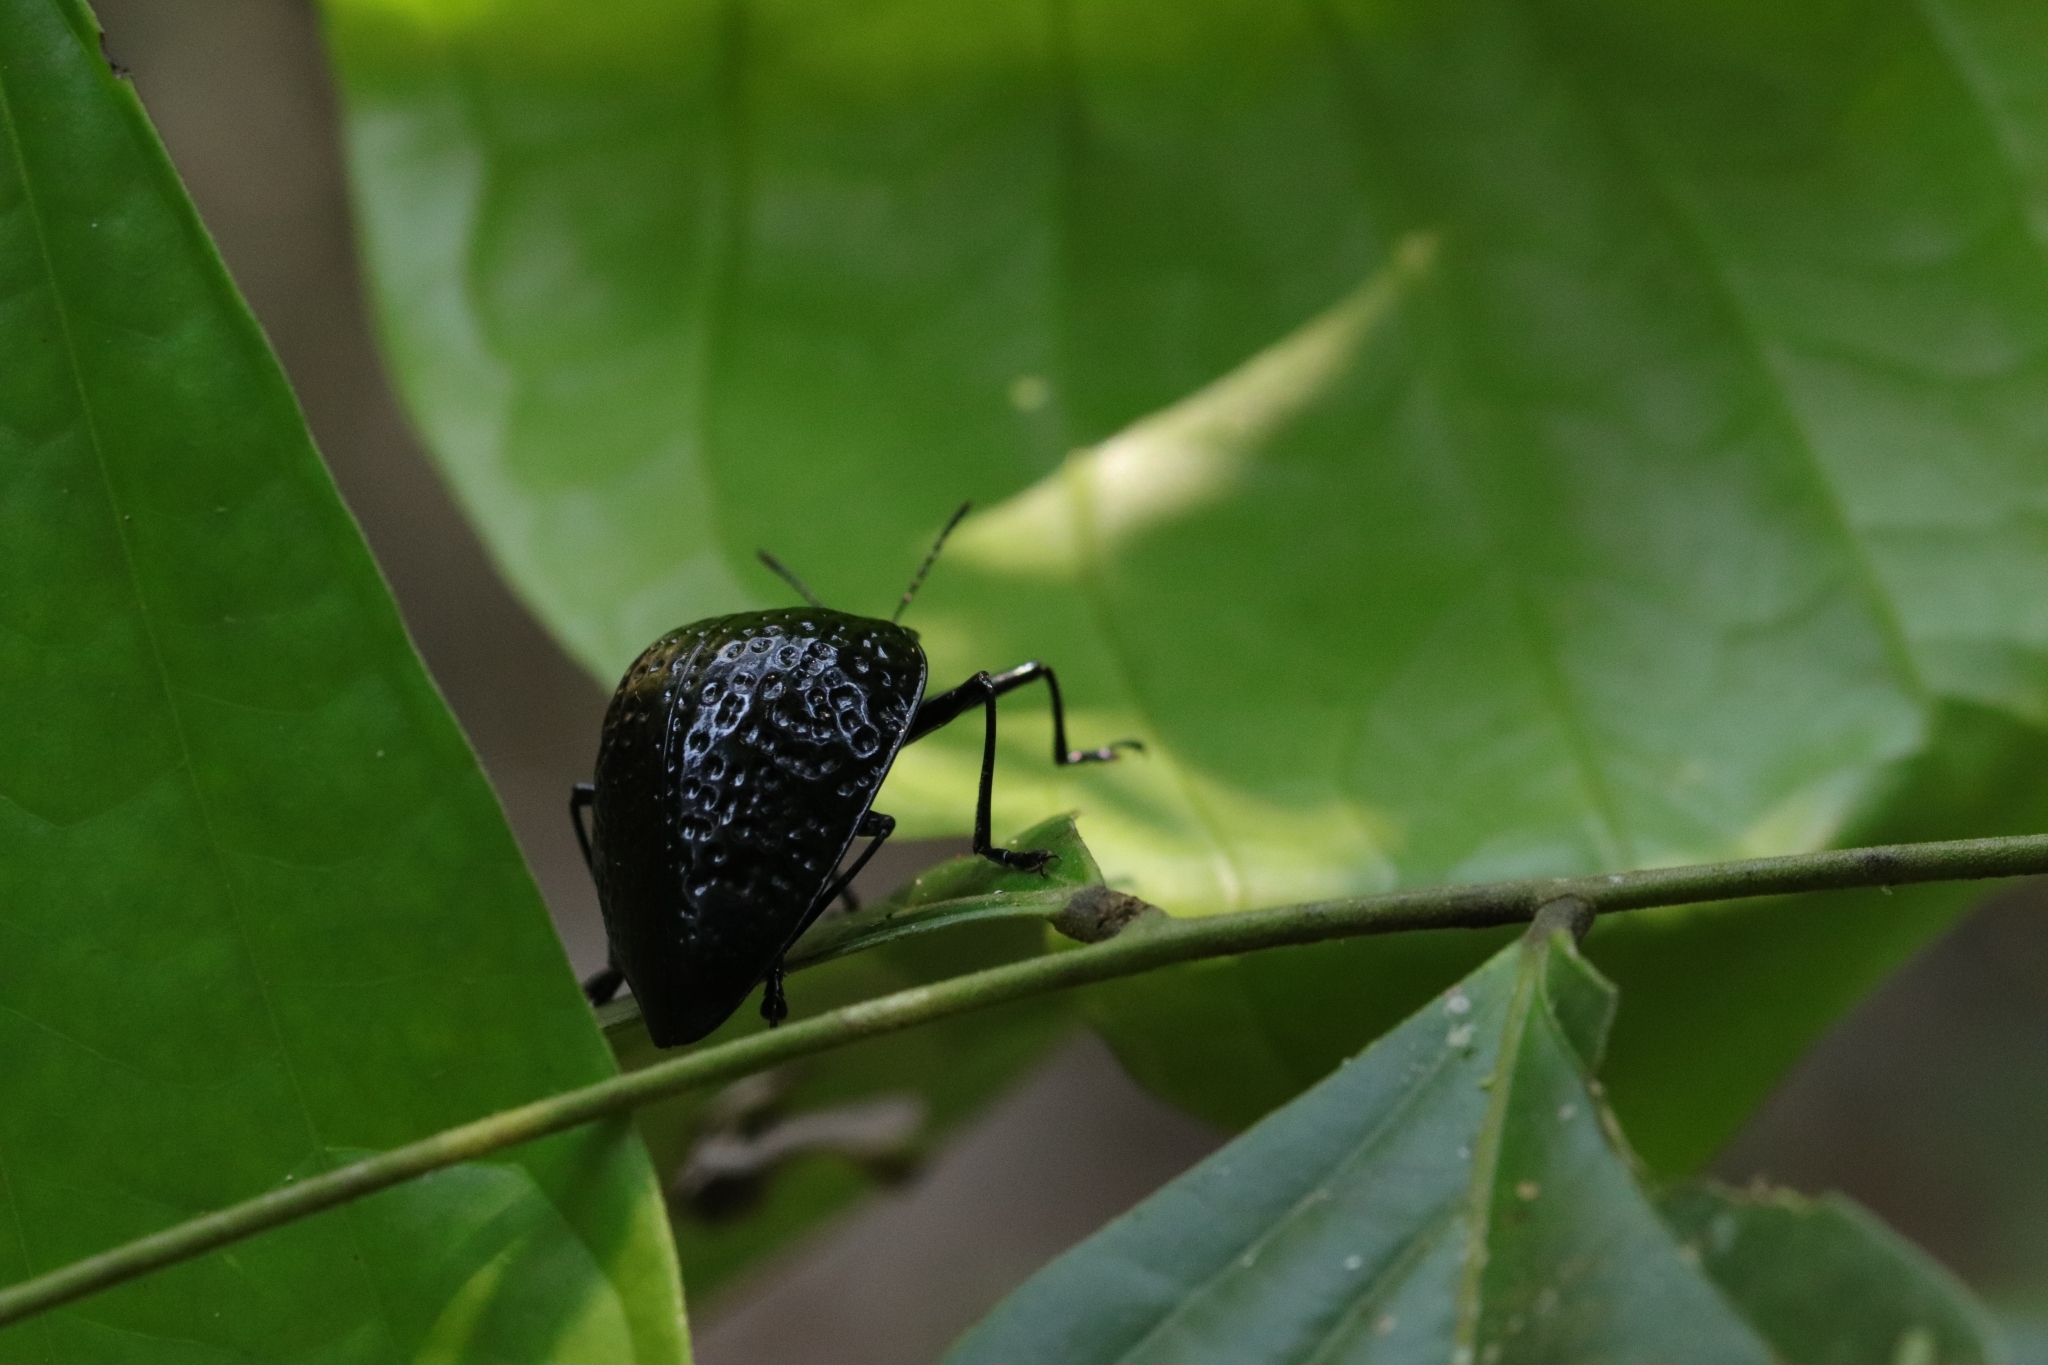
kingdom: Animalia
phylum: Arthropoda
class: Insecta
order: Coleoptera
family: Erotylidae
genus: Erotylus
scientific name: Erotylus
